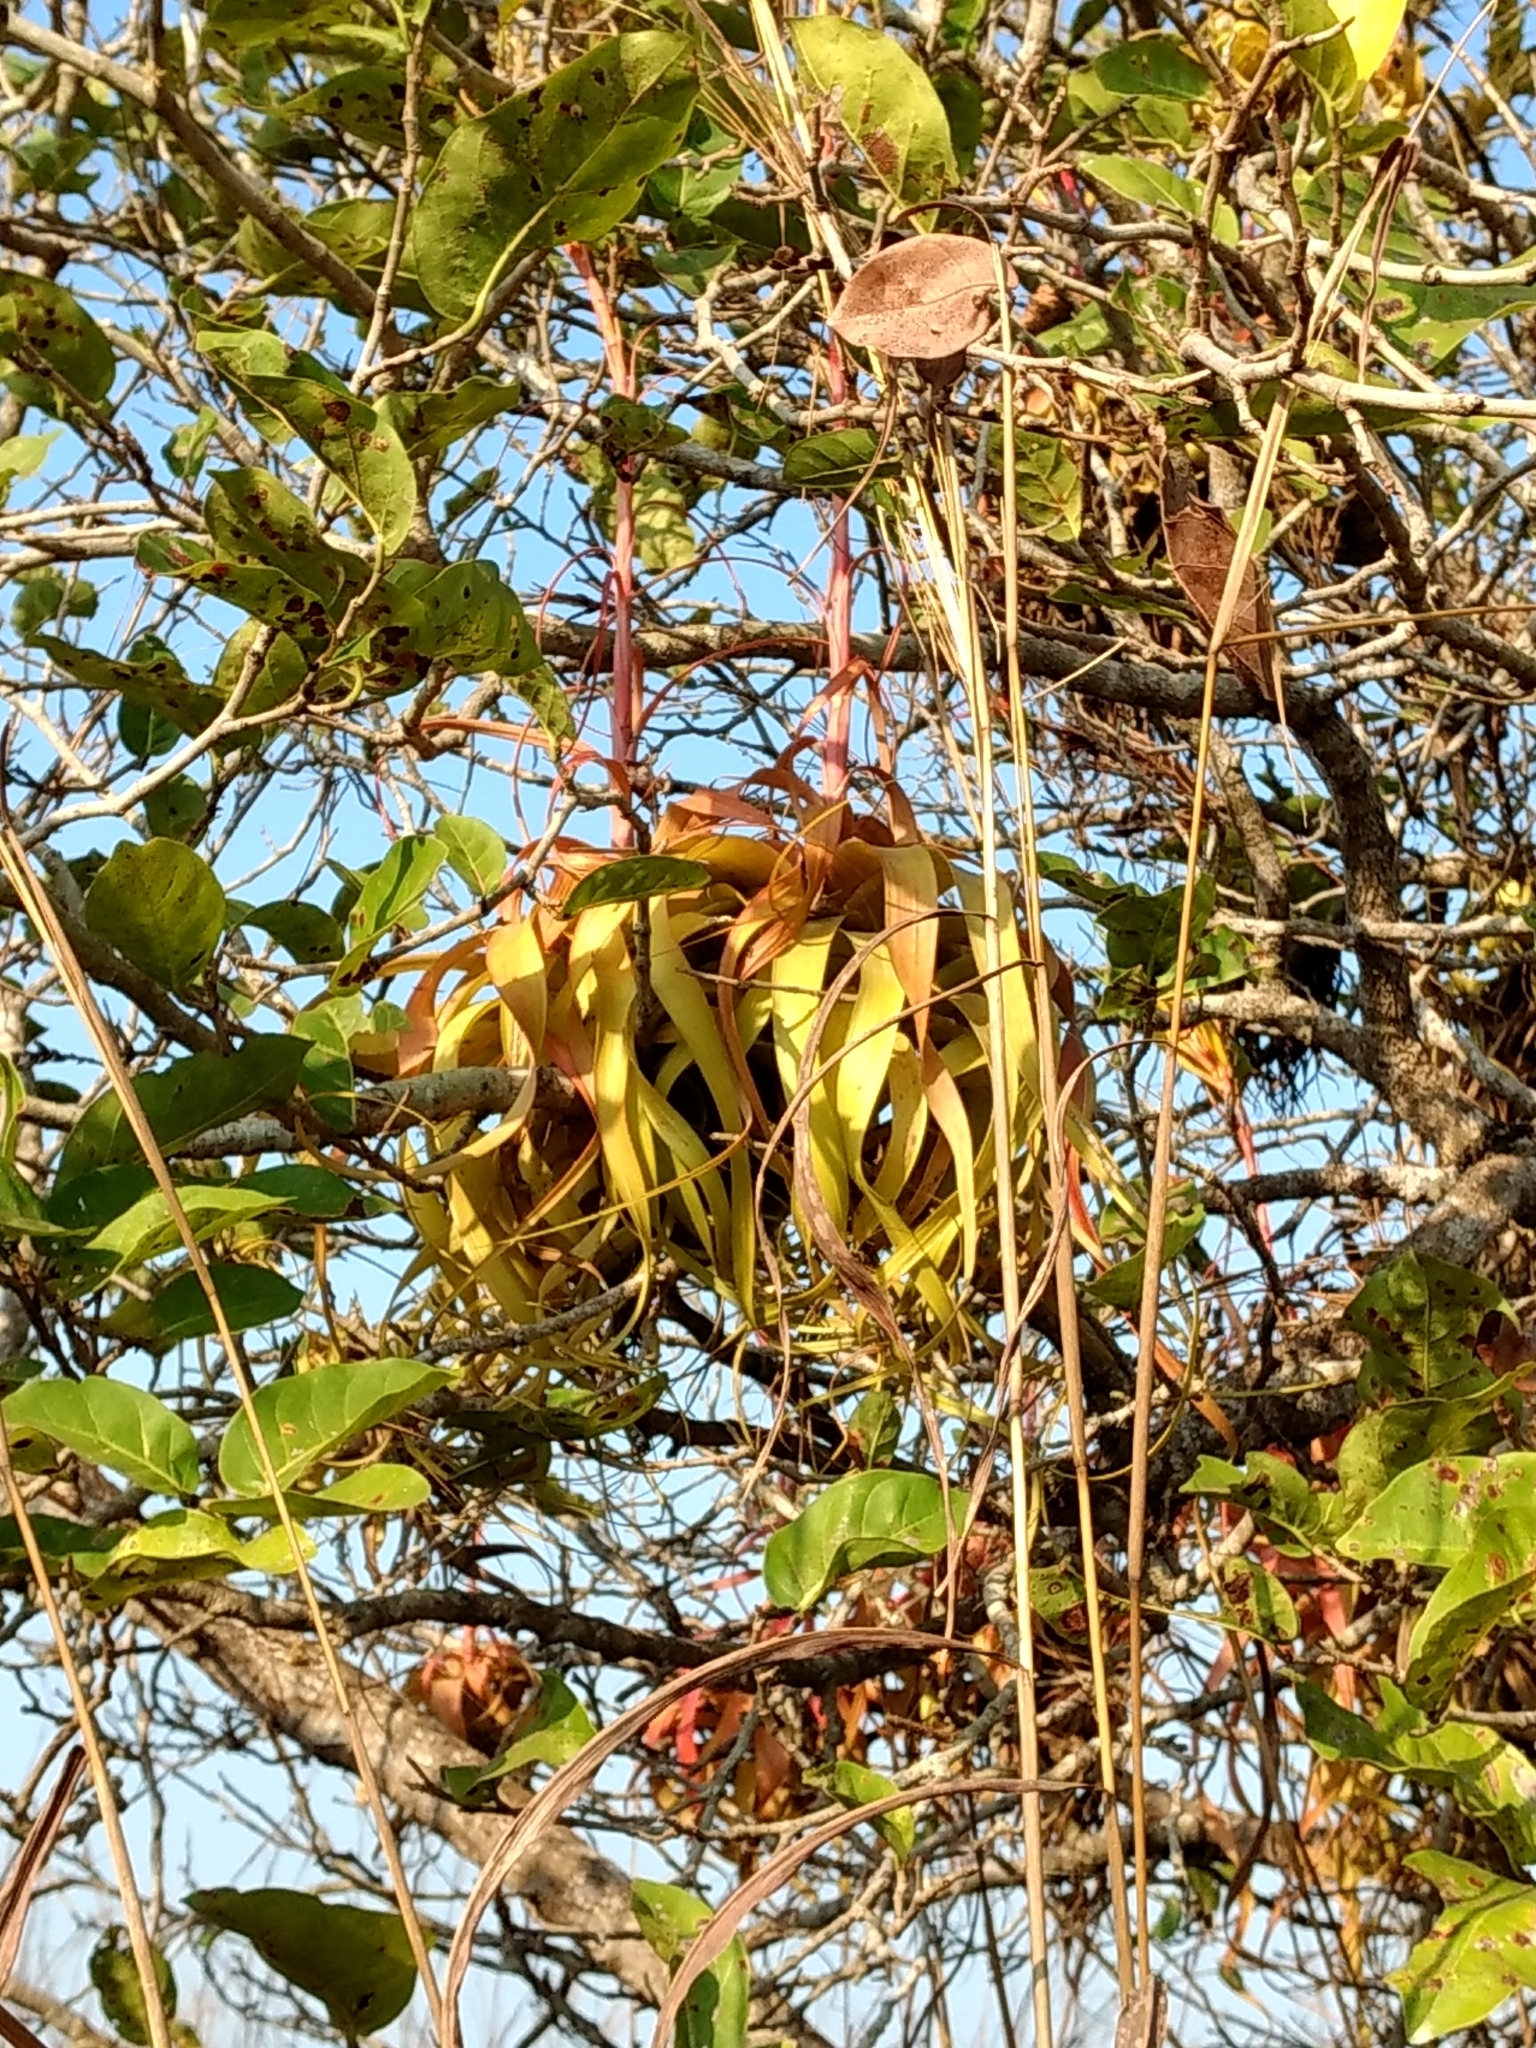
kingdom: Plantae
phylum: Tracheophyta
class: Liliopsida
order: Poales
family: Bromeliaceae
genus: Tillandsia
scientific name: Tillandsia roland-gosselinii
